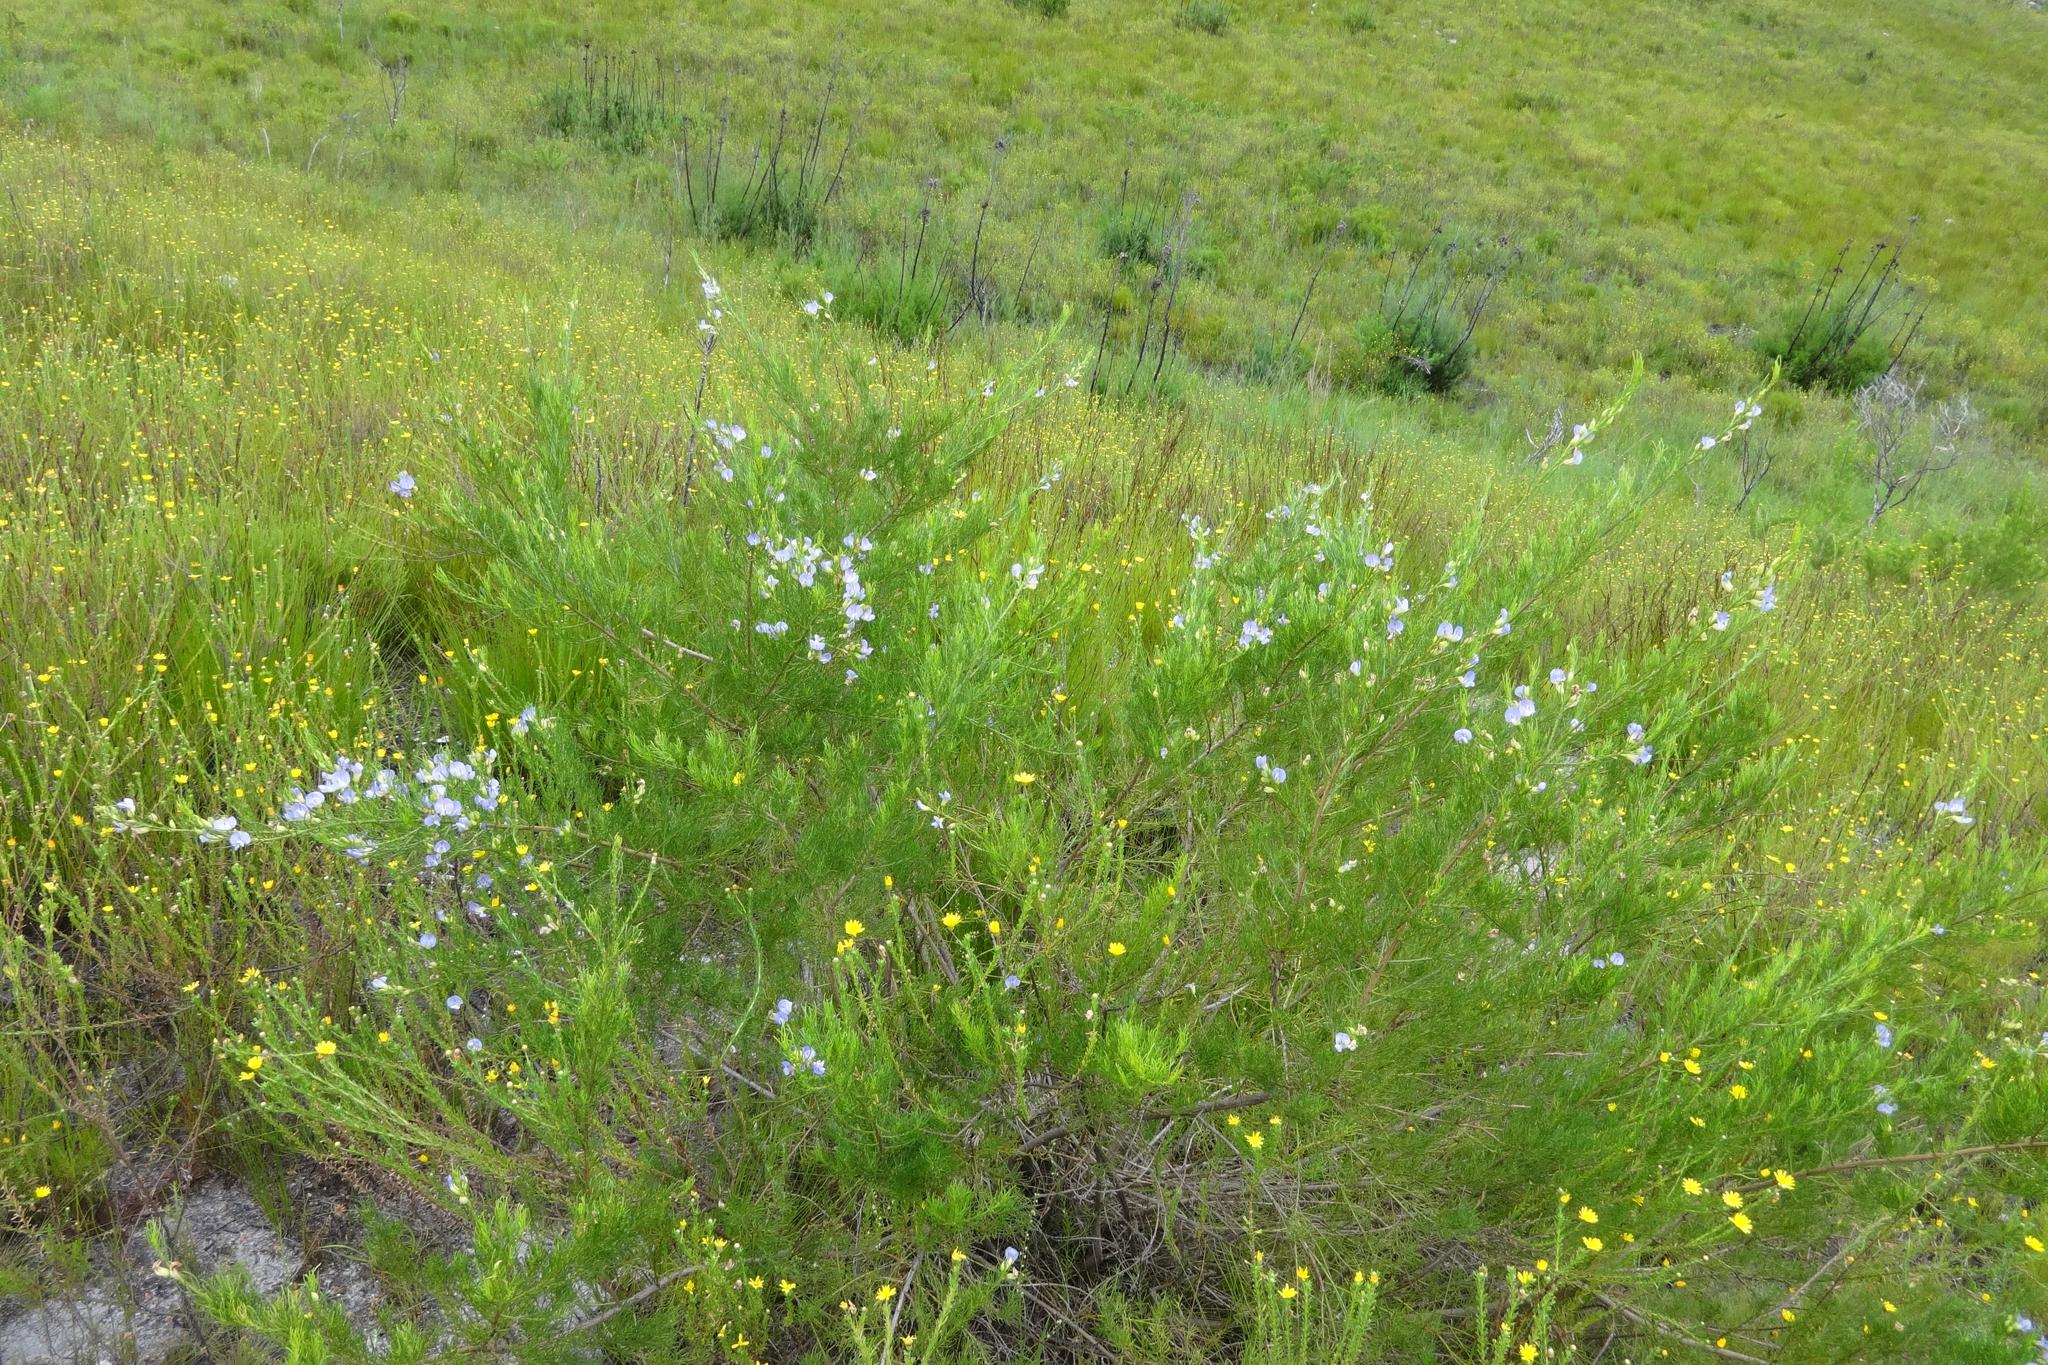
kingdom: Plantae
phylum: Tracheophyta
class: Magnoliopsida
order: Fabales
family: Fabaceae
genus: Psoralea
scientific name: Psoralea azuroides
